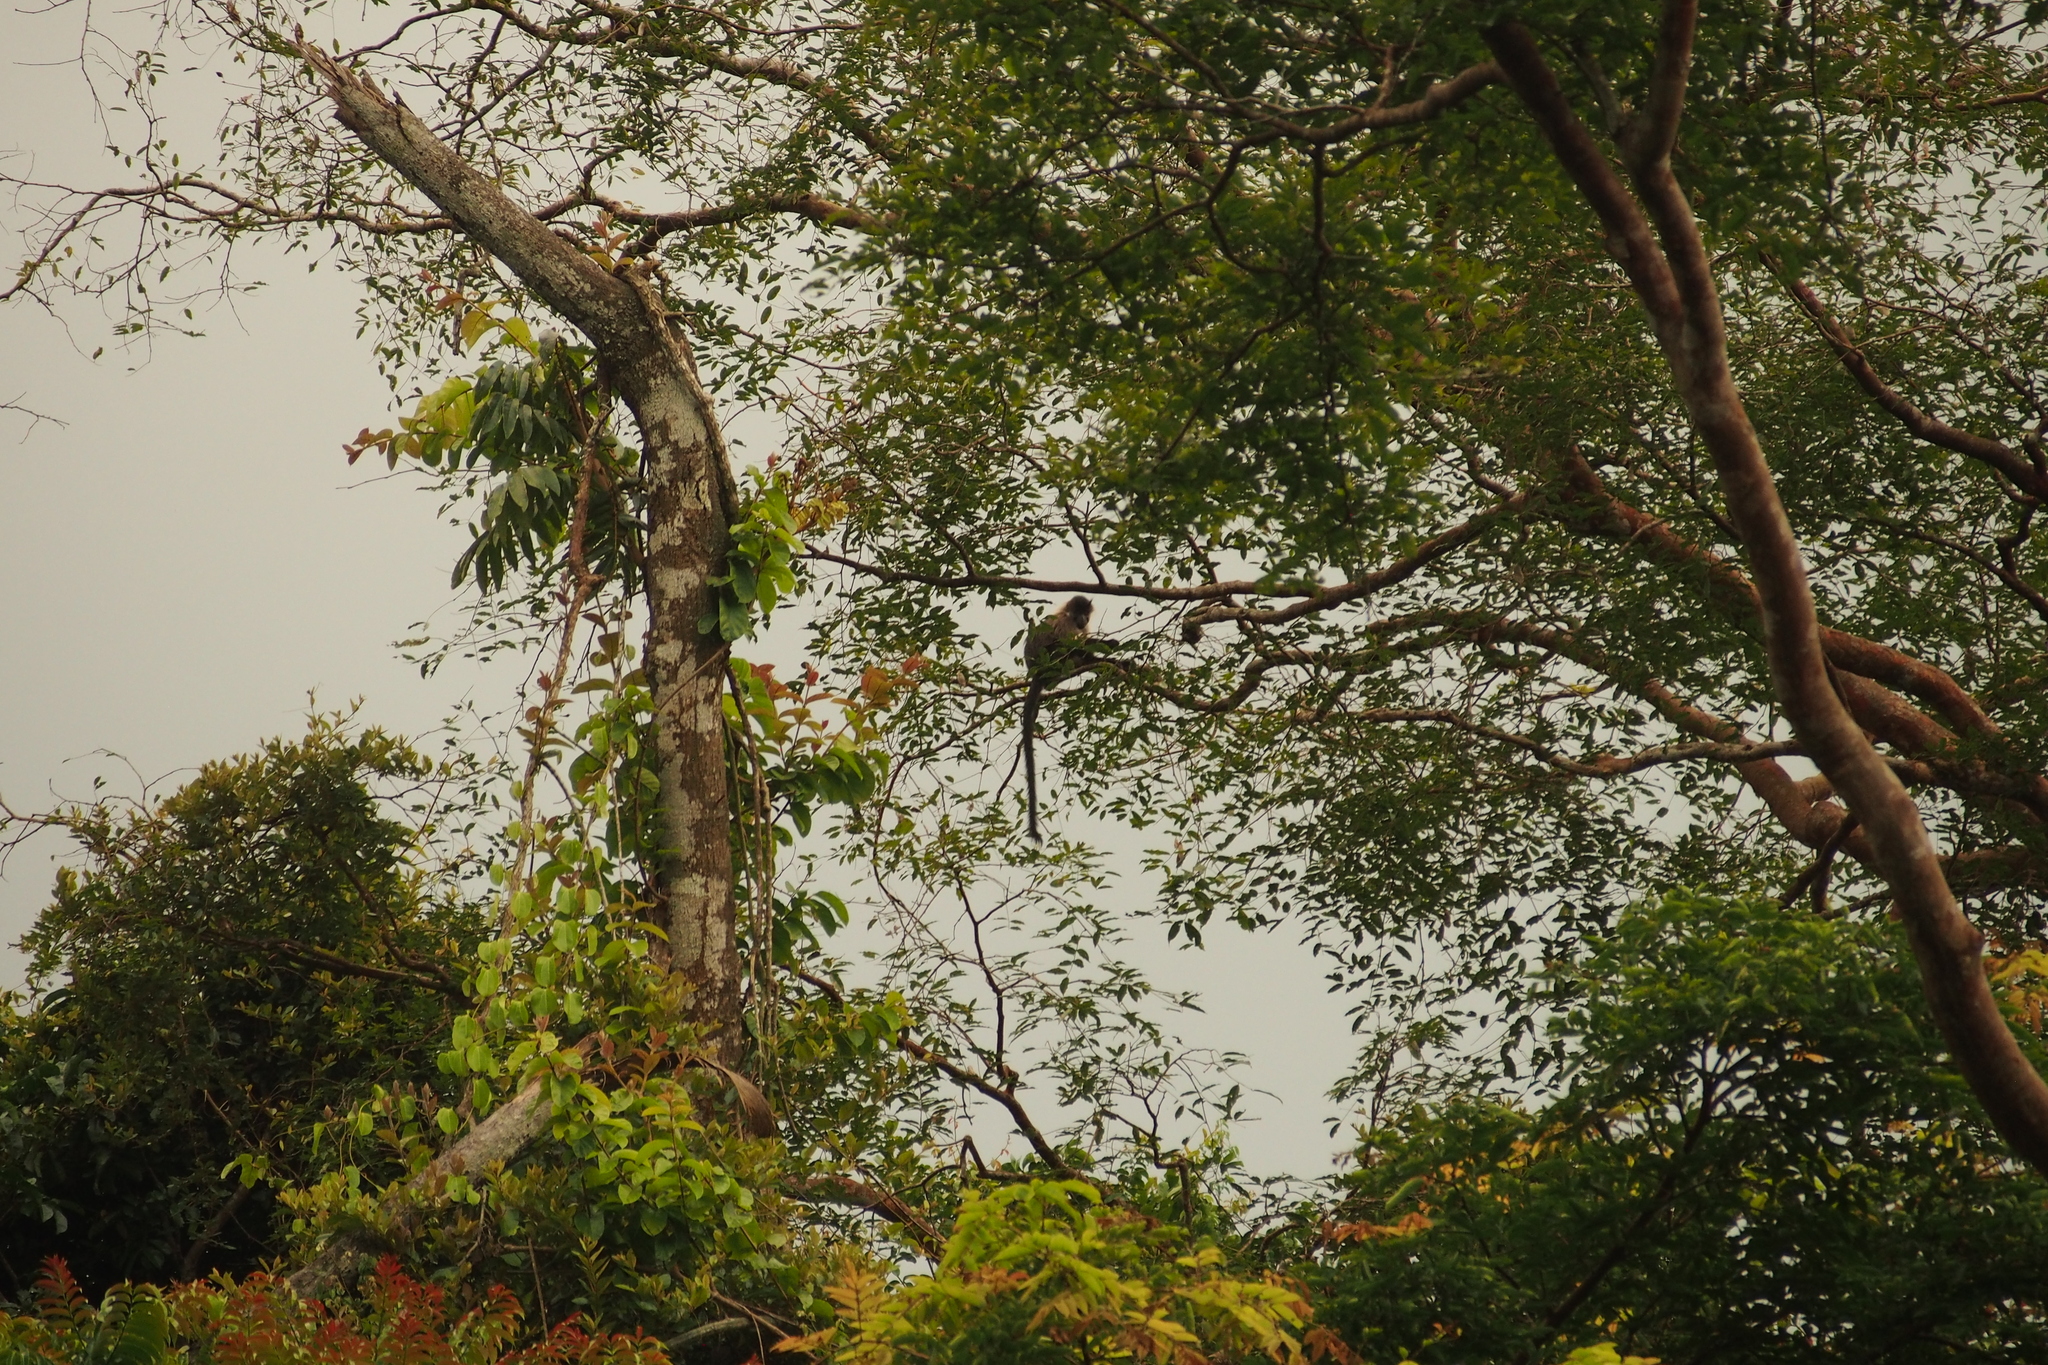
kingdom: Animalia
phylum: Chordata
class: Mammalia
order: Primates
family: Cercopithecidae
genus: Lophocebus
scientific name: Lophocebus albigena
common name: Gray-cheeked mangabey
